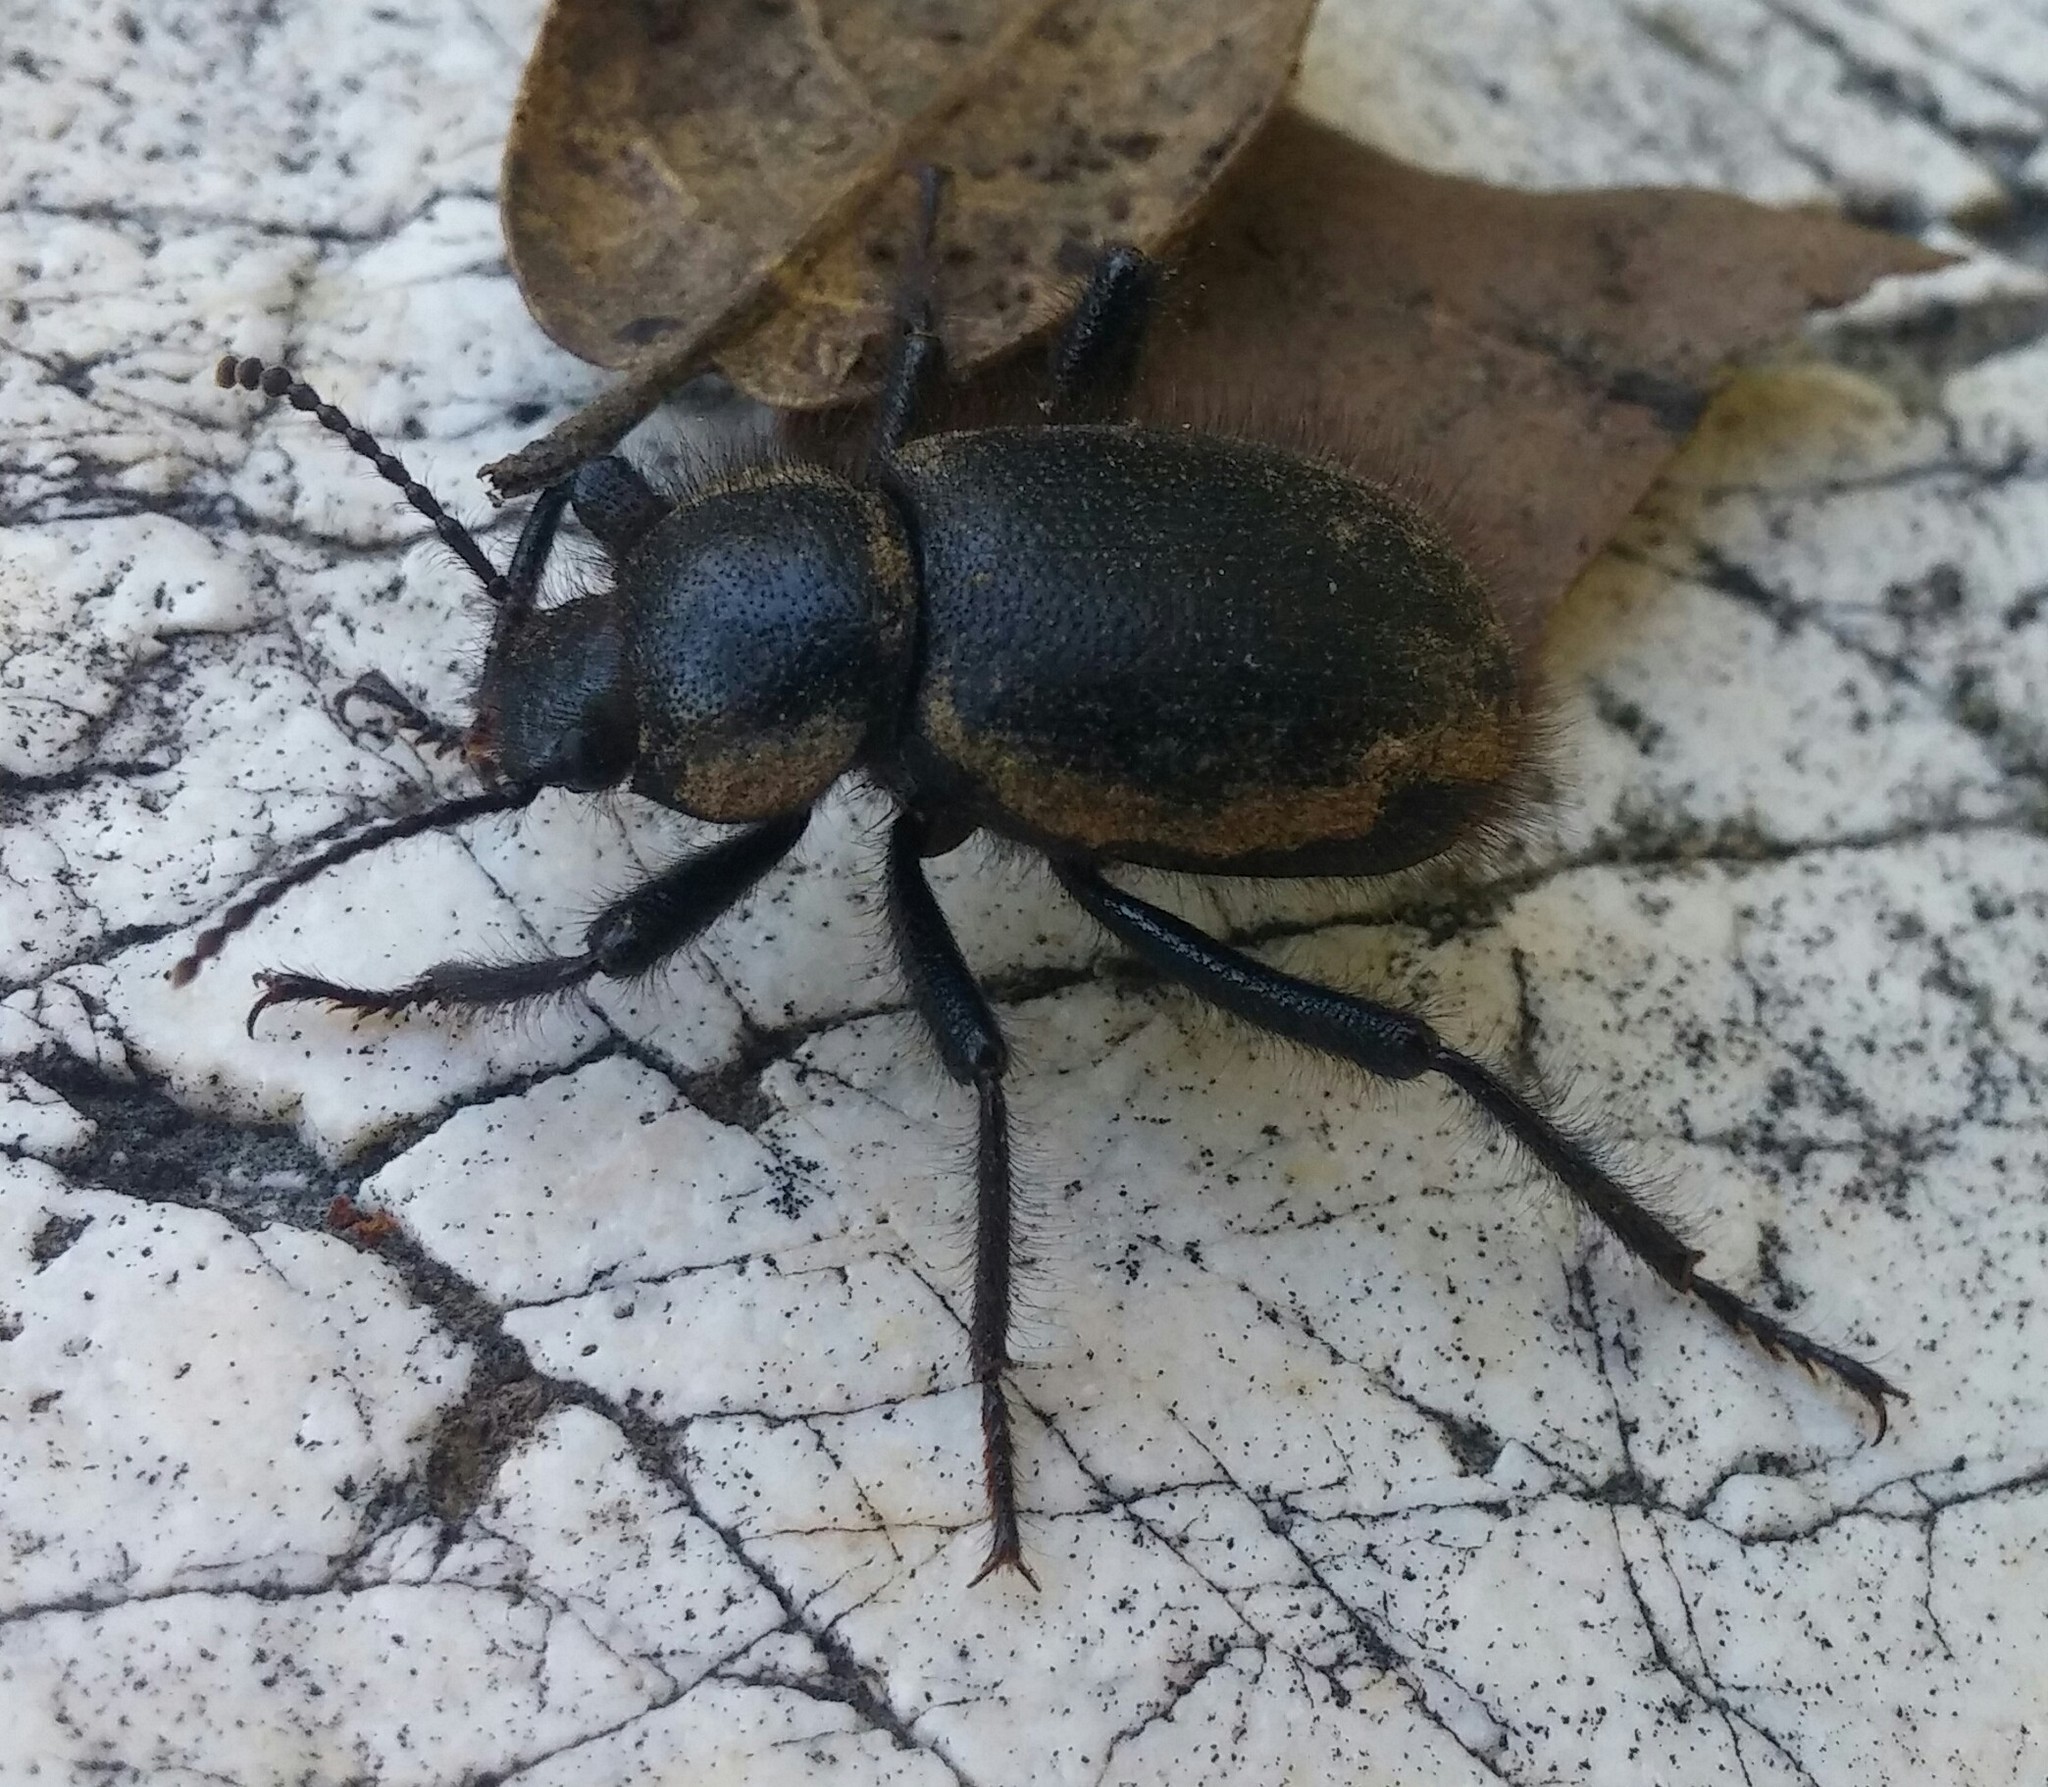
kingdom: Animalia
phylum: Arthropoda
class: Insecta
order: Coleoptera
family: Tenebrionidae
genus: Eleodes
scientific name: Eleodes osculans
